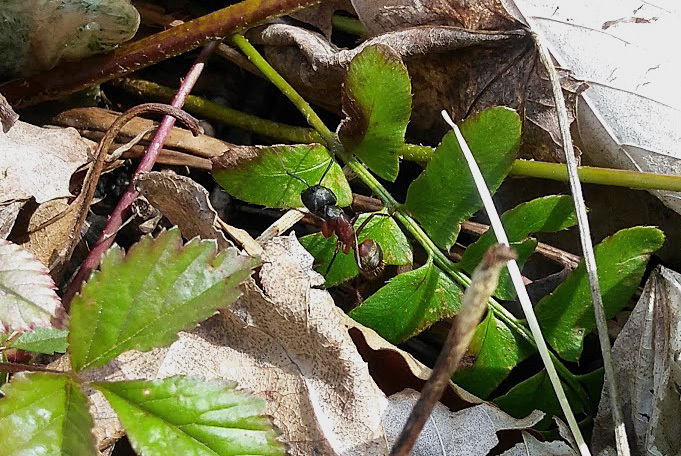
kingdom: Animalia
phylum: Arthropoda
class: Insecta
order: Hymenoptera
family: Formicidae
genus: Camponotus
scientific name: Camponotus chromaiodes
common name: Red carpenter ant
